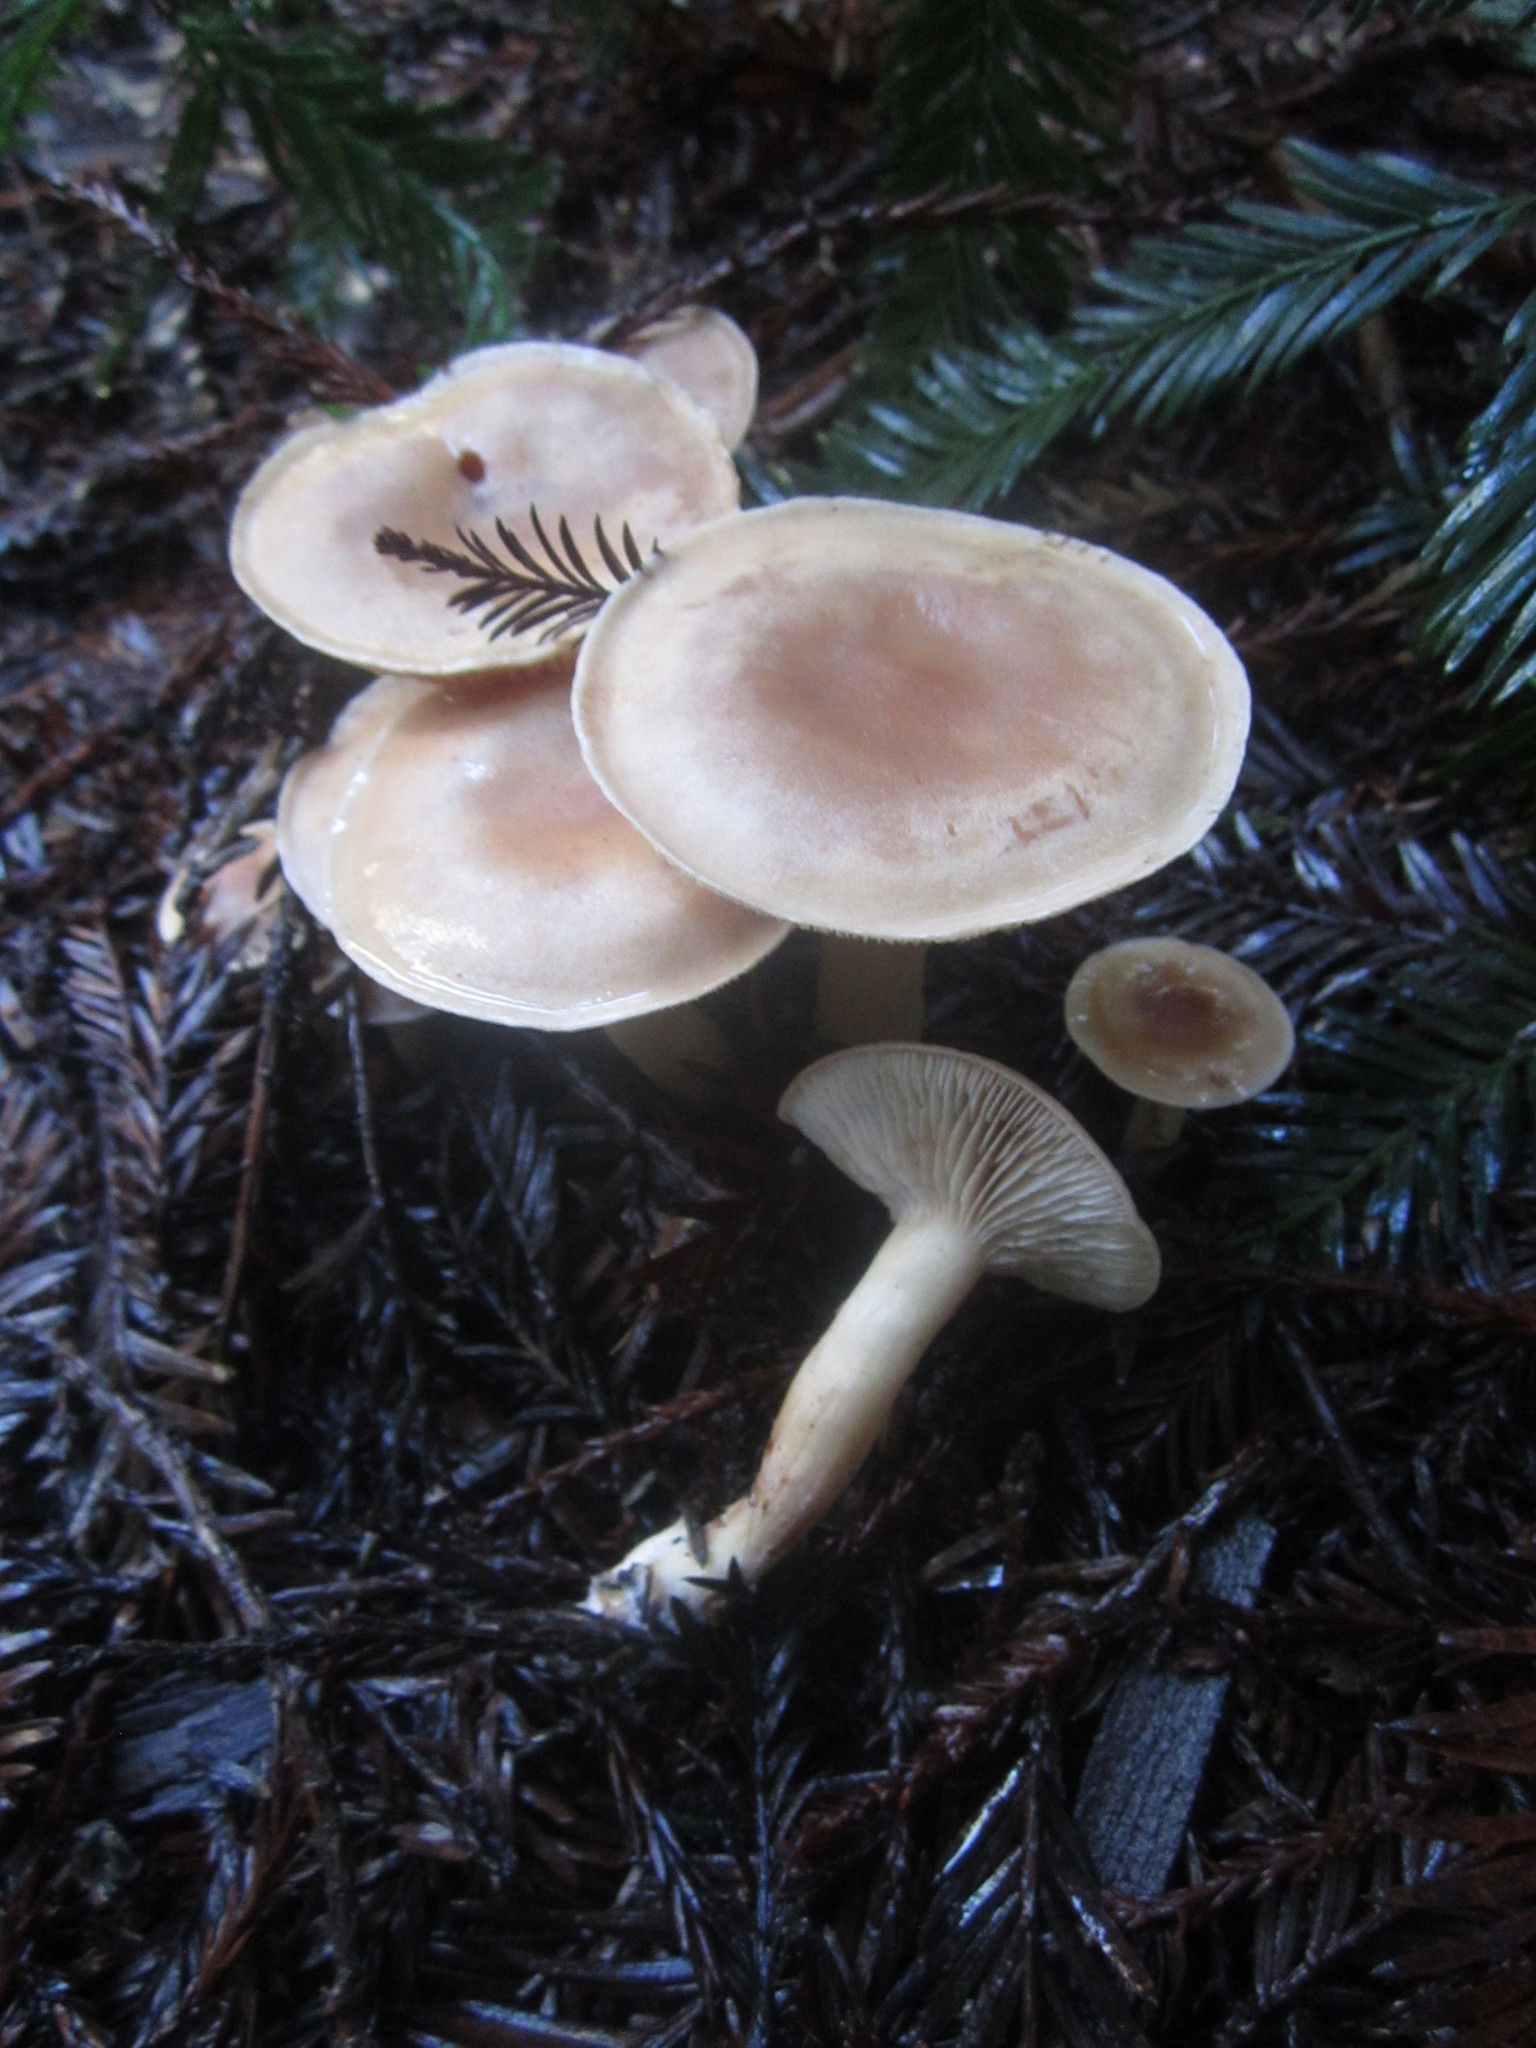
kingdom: Fungi
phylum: Basidiomycota
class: Agaricomycetes
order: Agaricales
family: Entolomataceae
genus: Clitopilus
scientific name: Clitopilus hondensis
